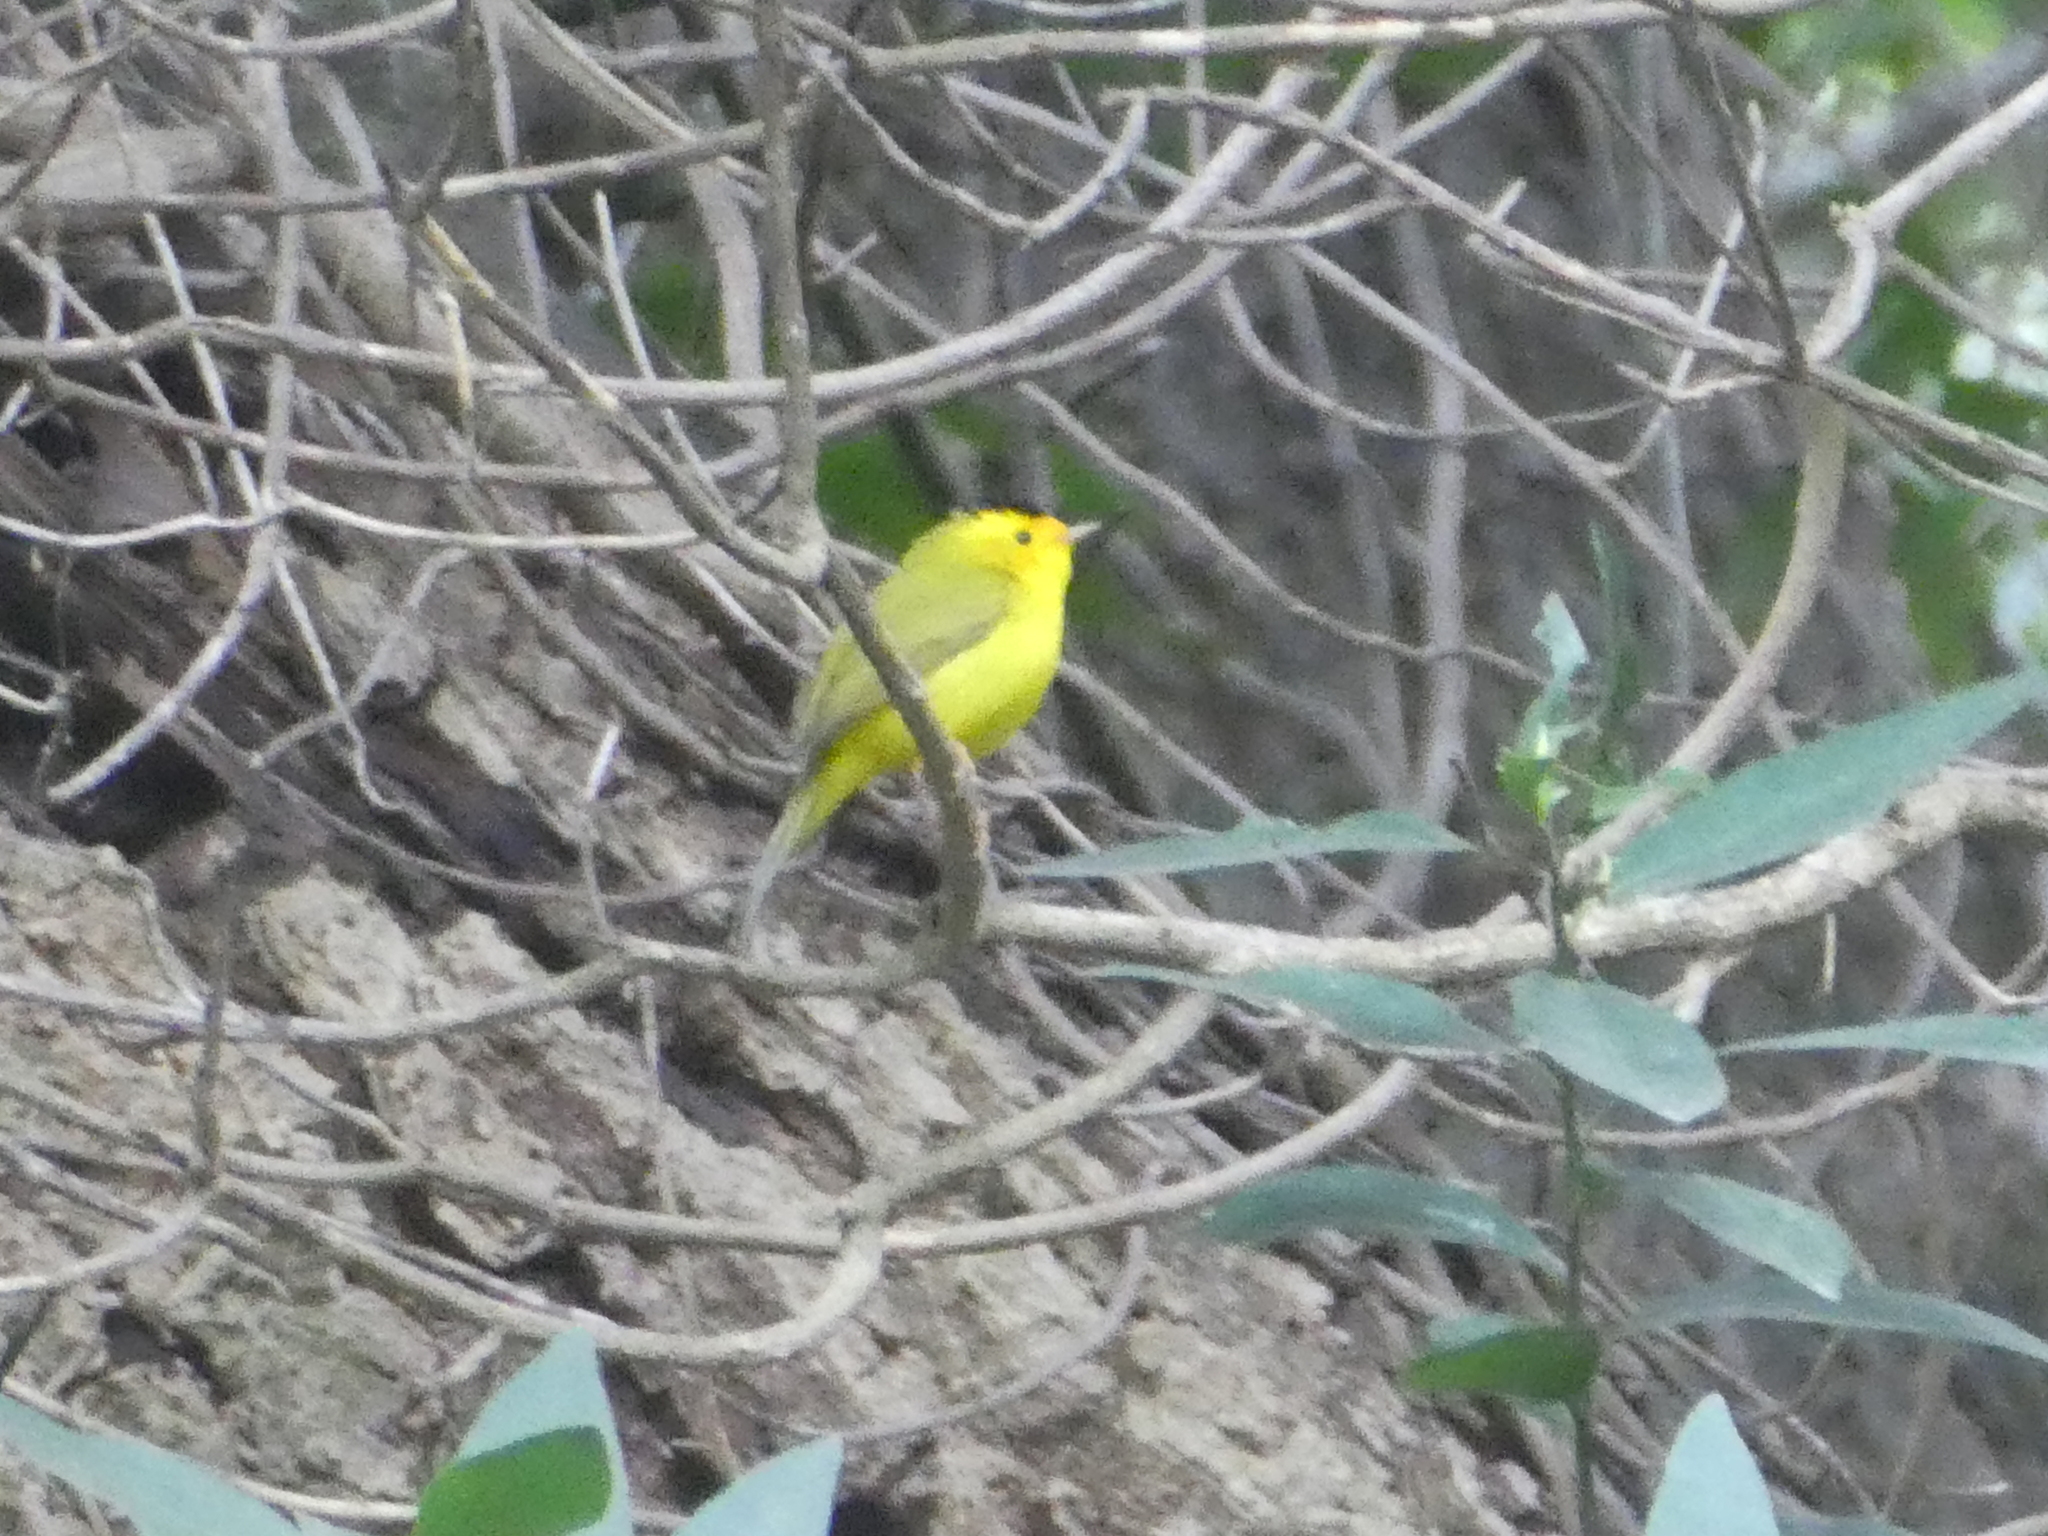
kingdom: Animalia
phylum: Chordata
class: Aves
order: Passeriformes
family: Parulidae
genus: Cardellina
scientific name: Cardellina pusilla
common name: Wilson's warbler
